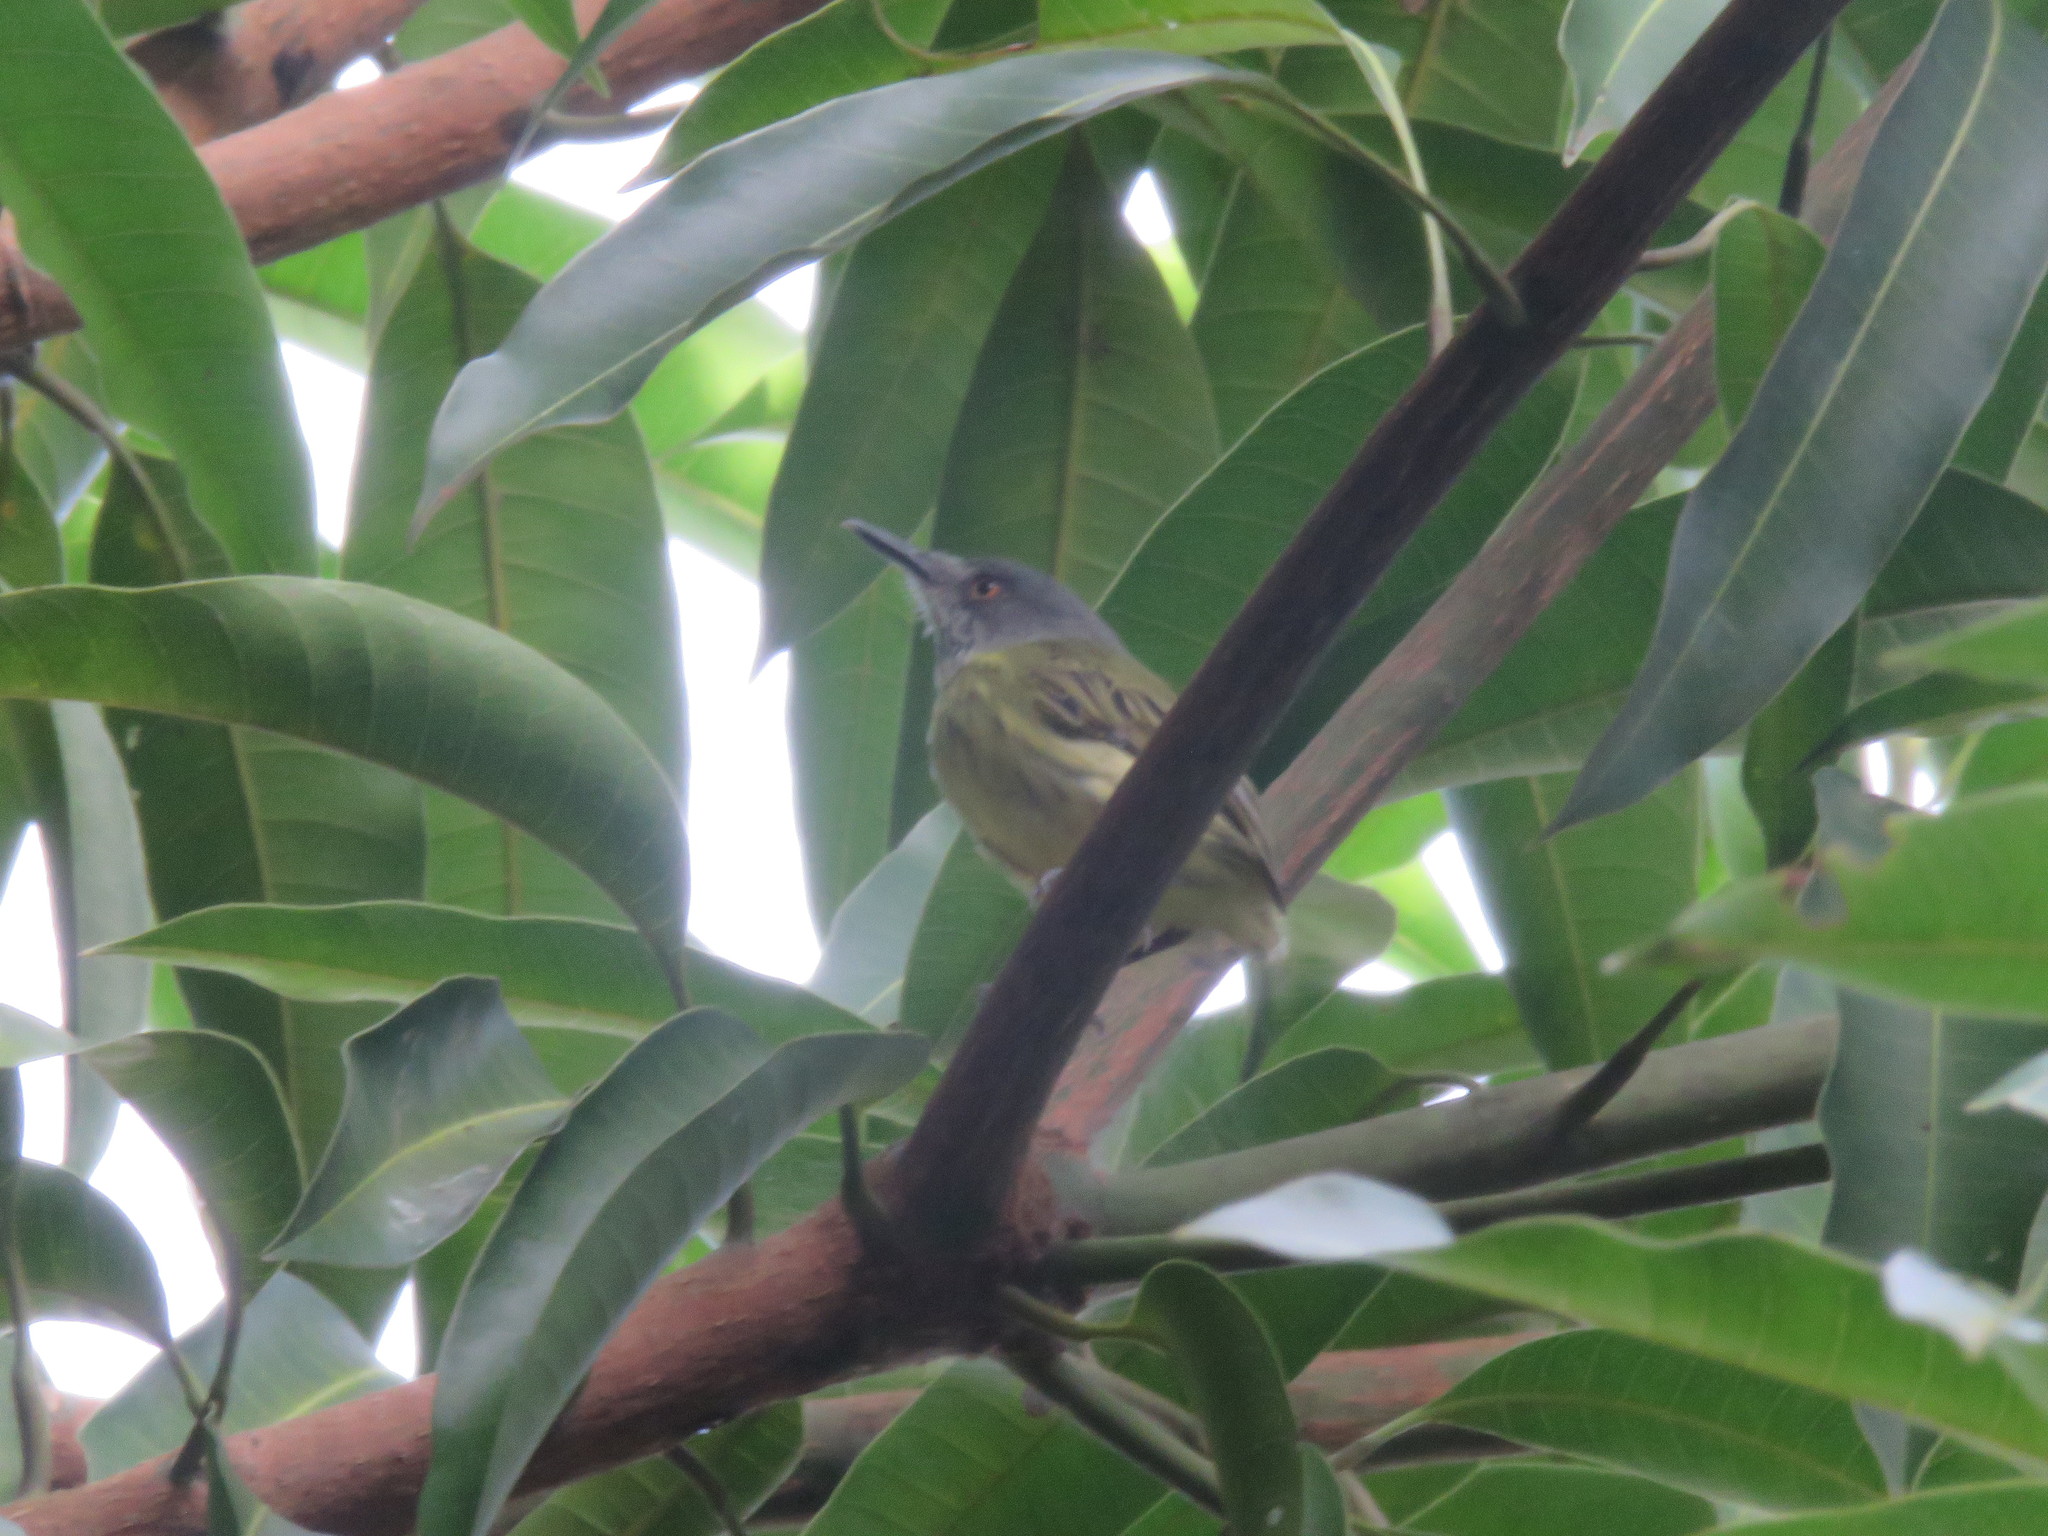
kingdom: Animalia
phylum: Chordata
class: Aves
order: Passeriformes
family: Tyrannidae
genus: Todirostrum
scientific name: Todirostrum maculatum
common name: Spotted tody-flycatcher
